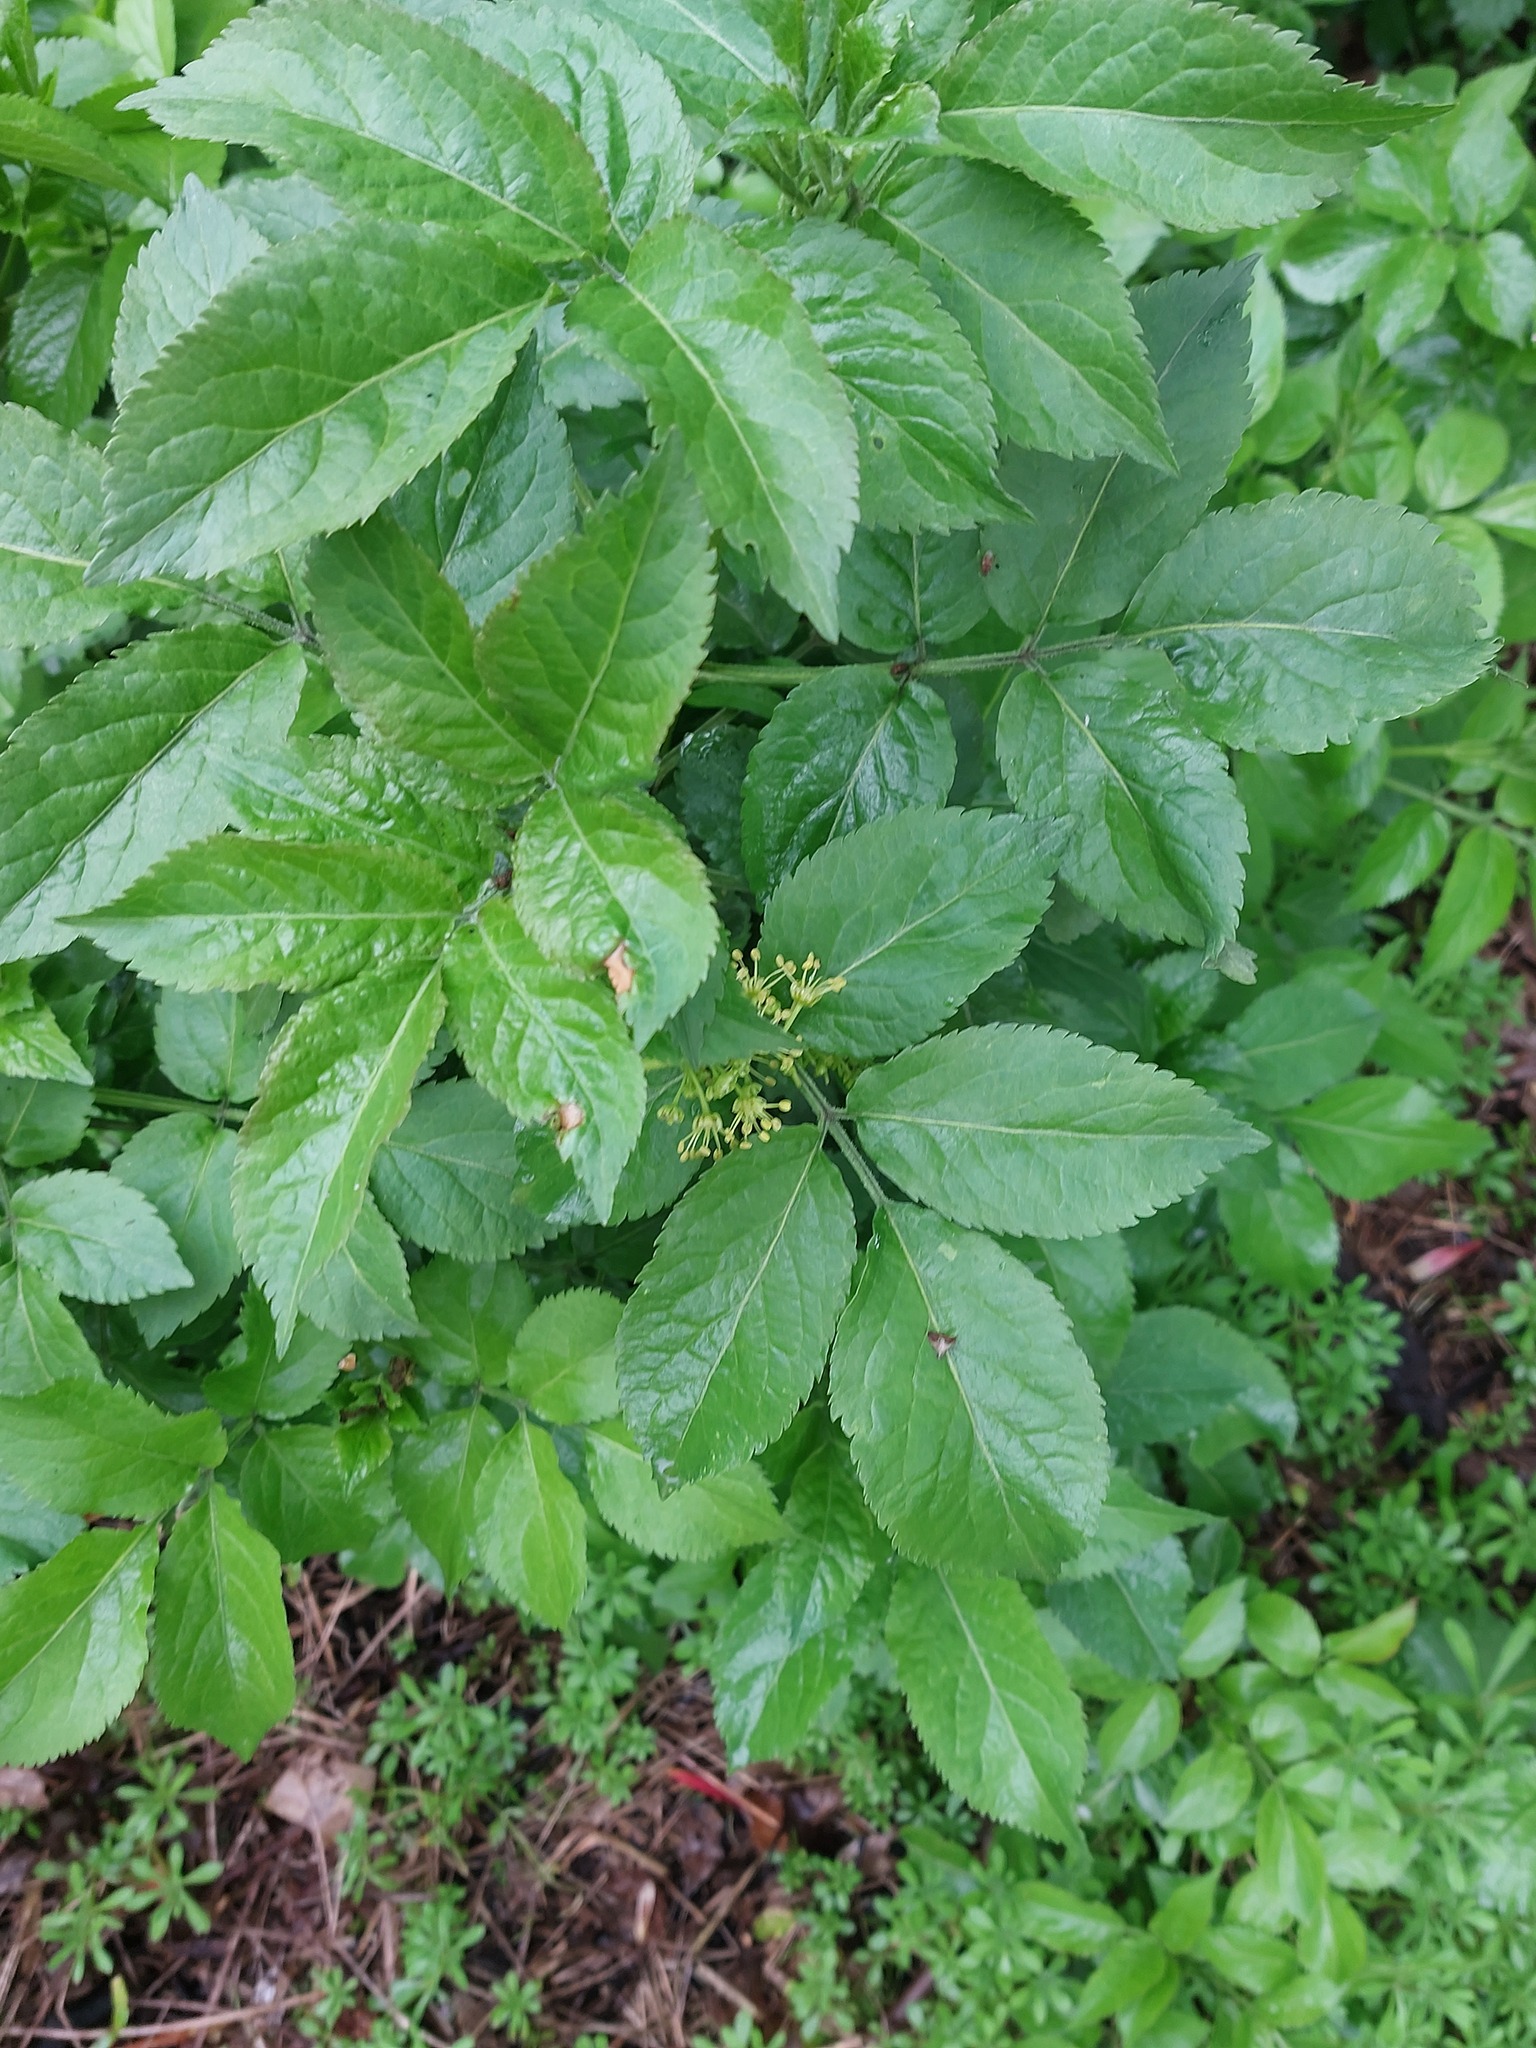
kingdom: Plantae
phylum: Tracheophyta
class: Magnoliopsida
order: Dipsacales
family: Viburnaceae
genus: Sambucus
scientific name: Sambucus nigra
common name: Elder
